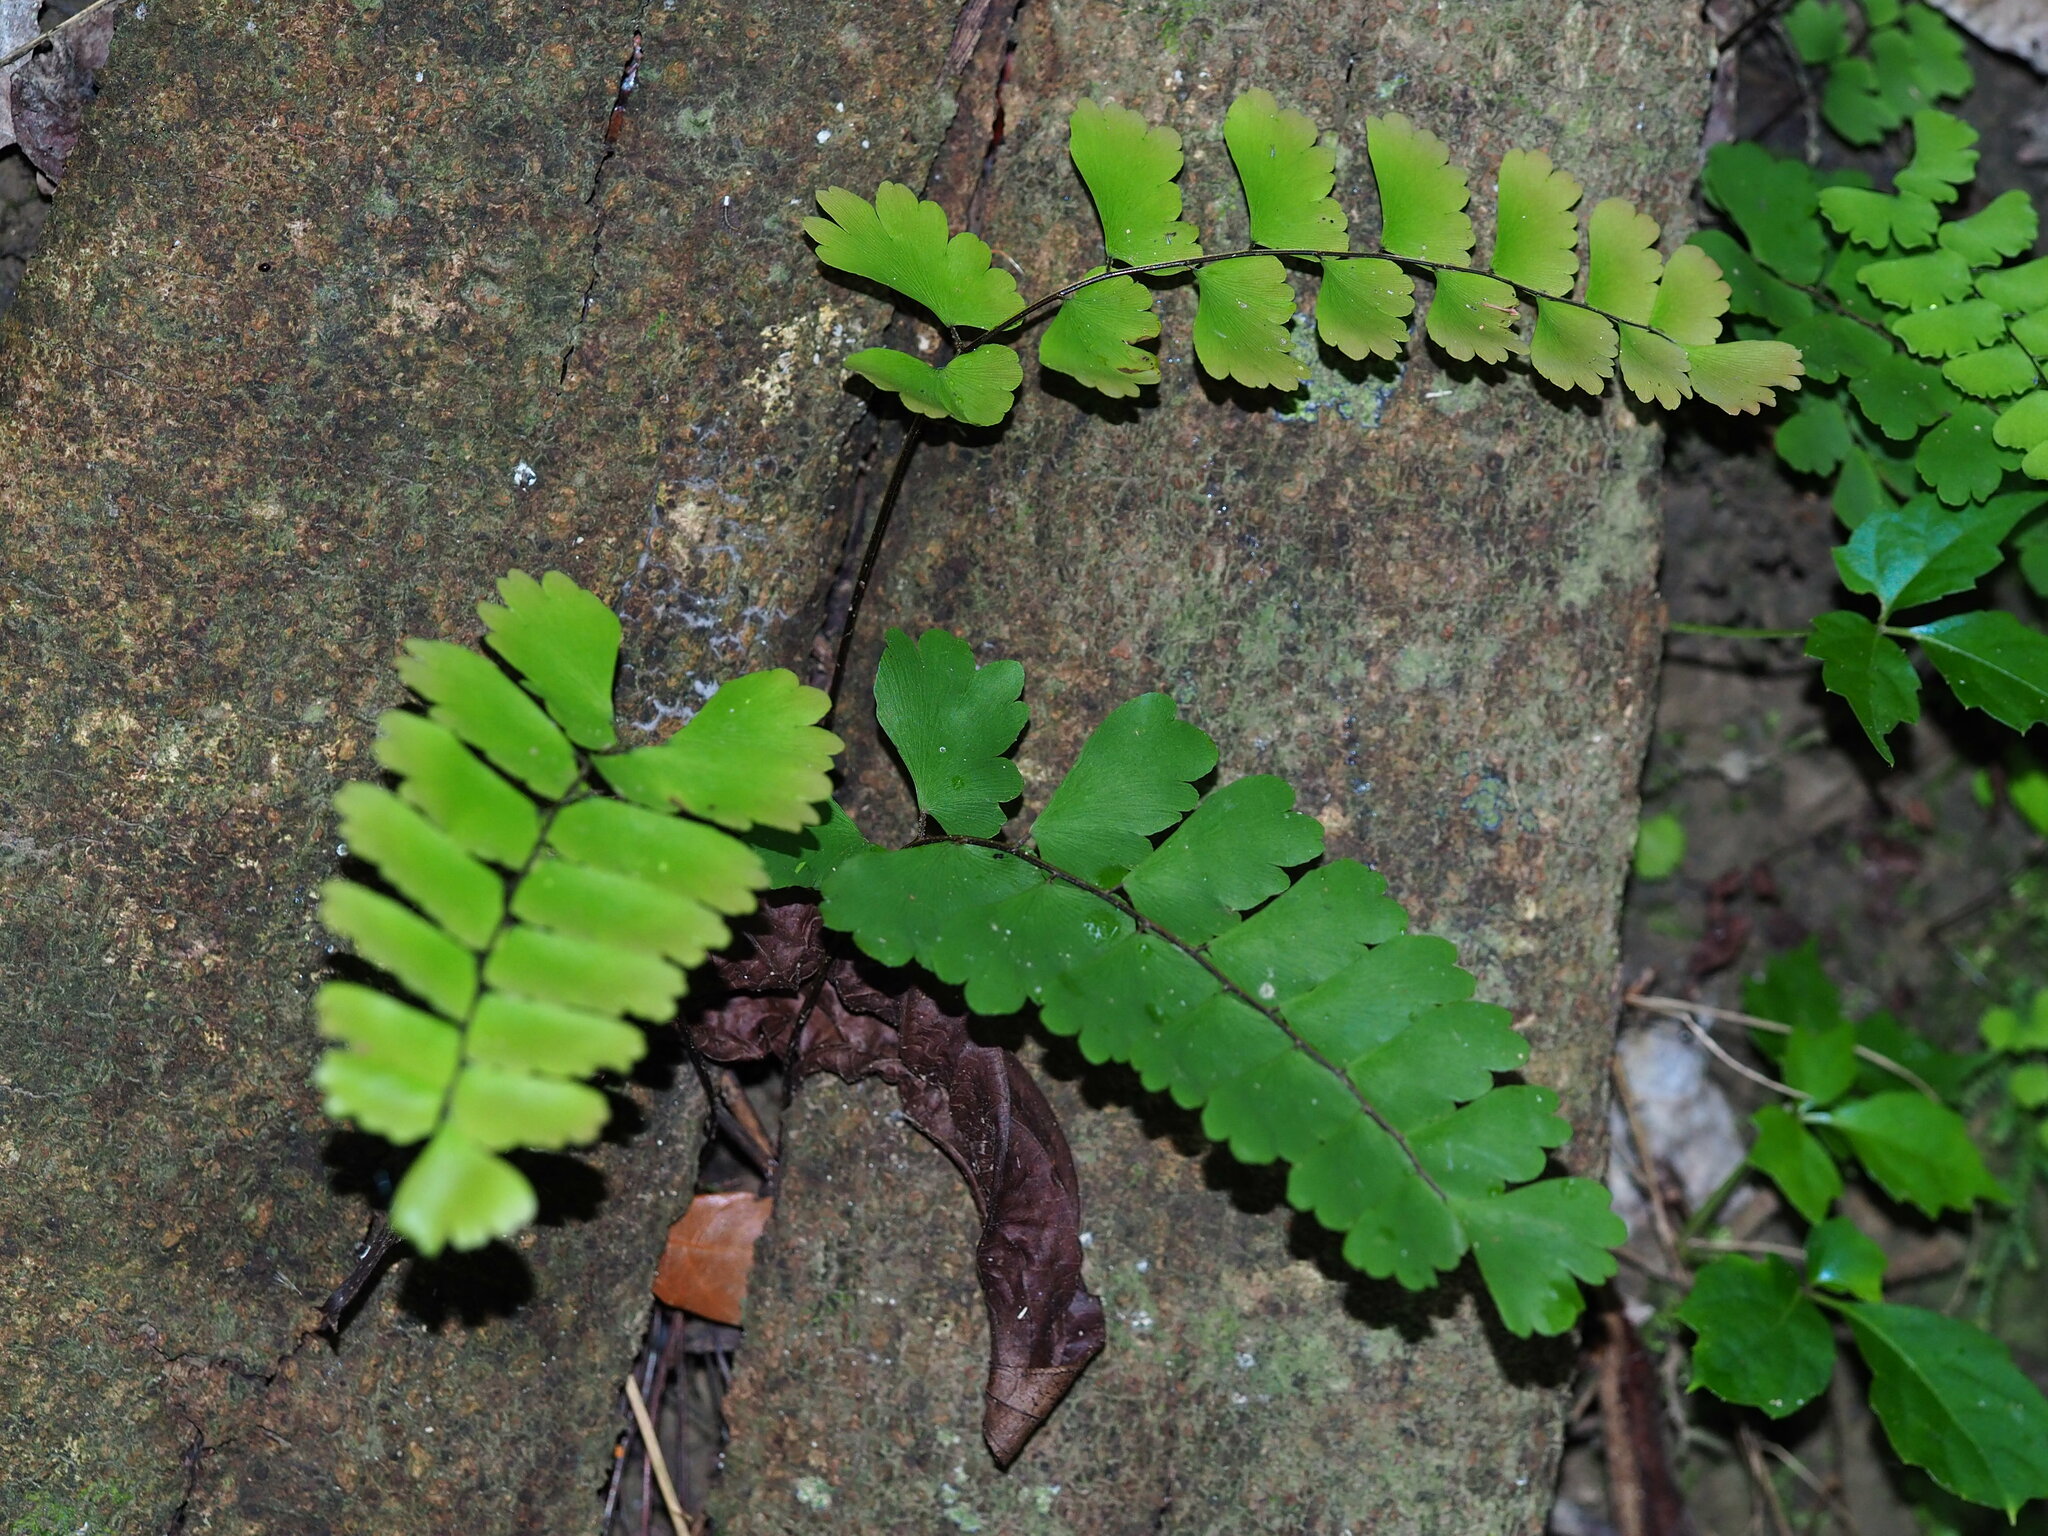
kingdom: Plantae
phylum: Tracheophyta
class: Polypodiopsida
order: Polypodiales
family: Pteridaceae
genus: Adiantum
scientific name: Adiantum philippense
